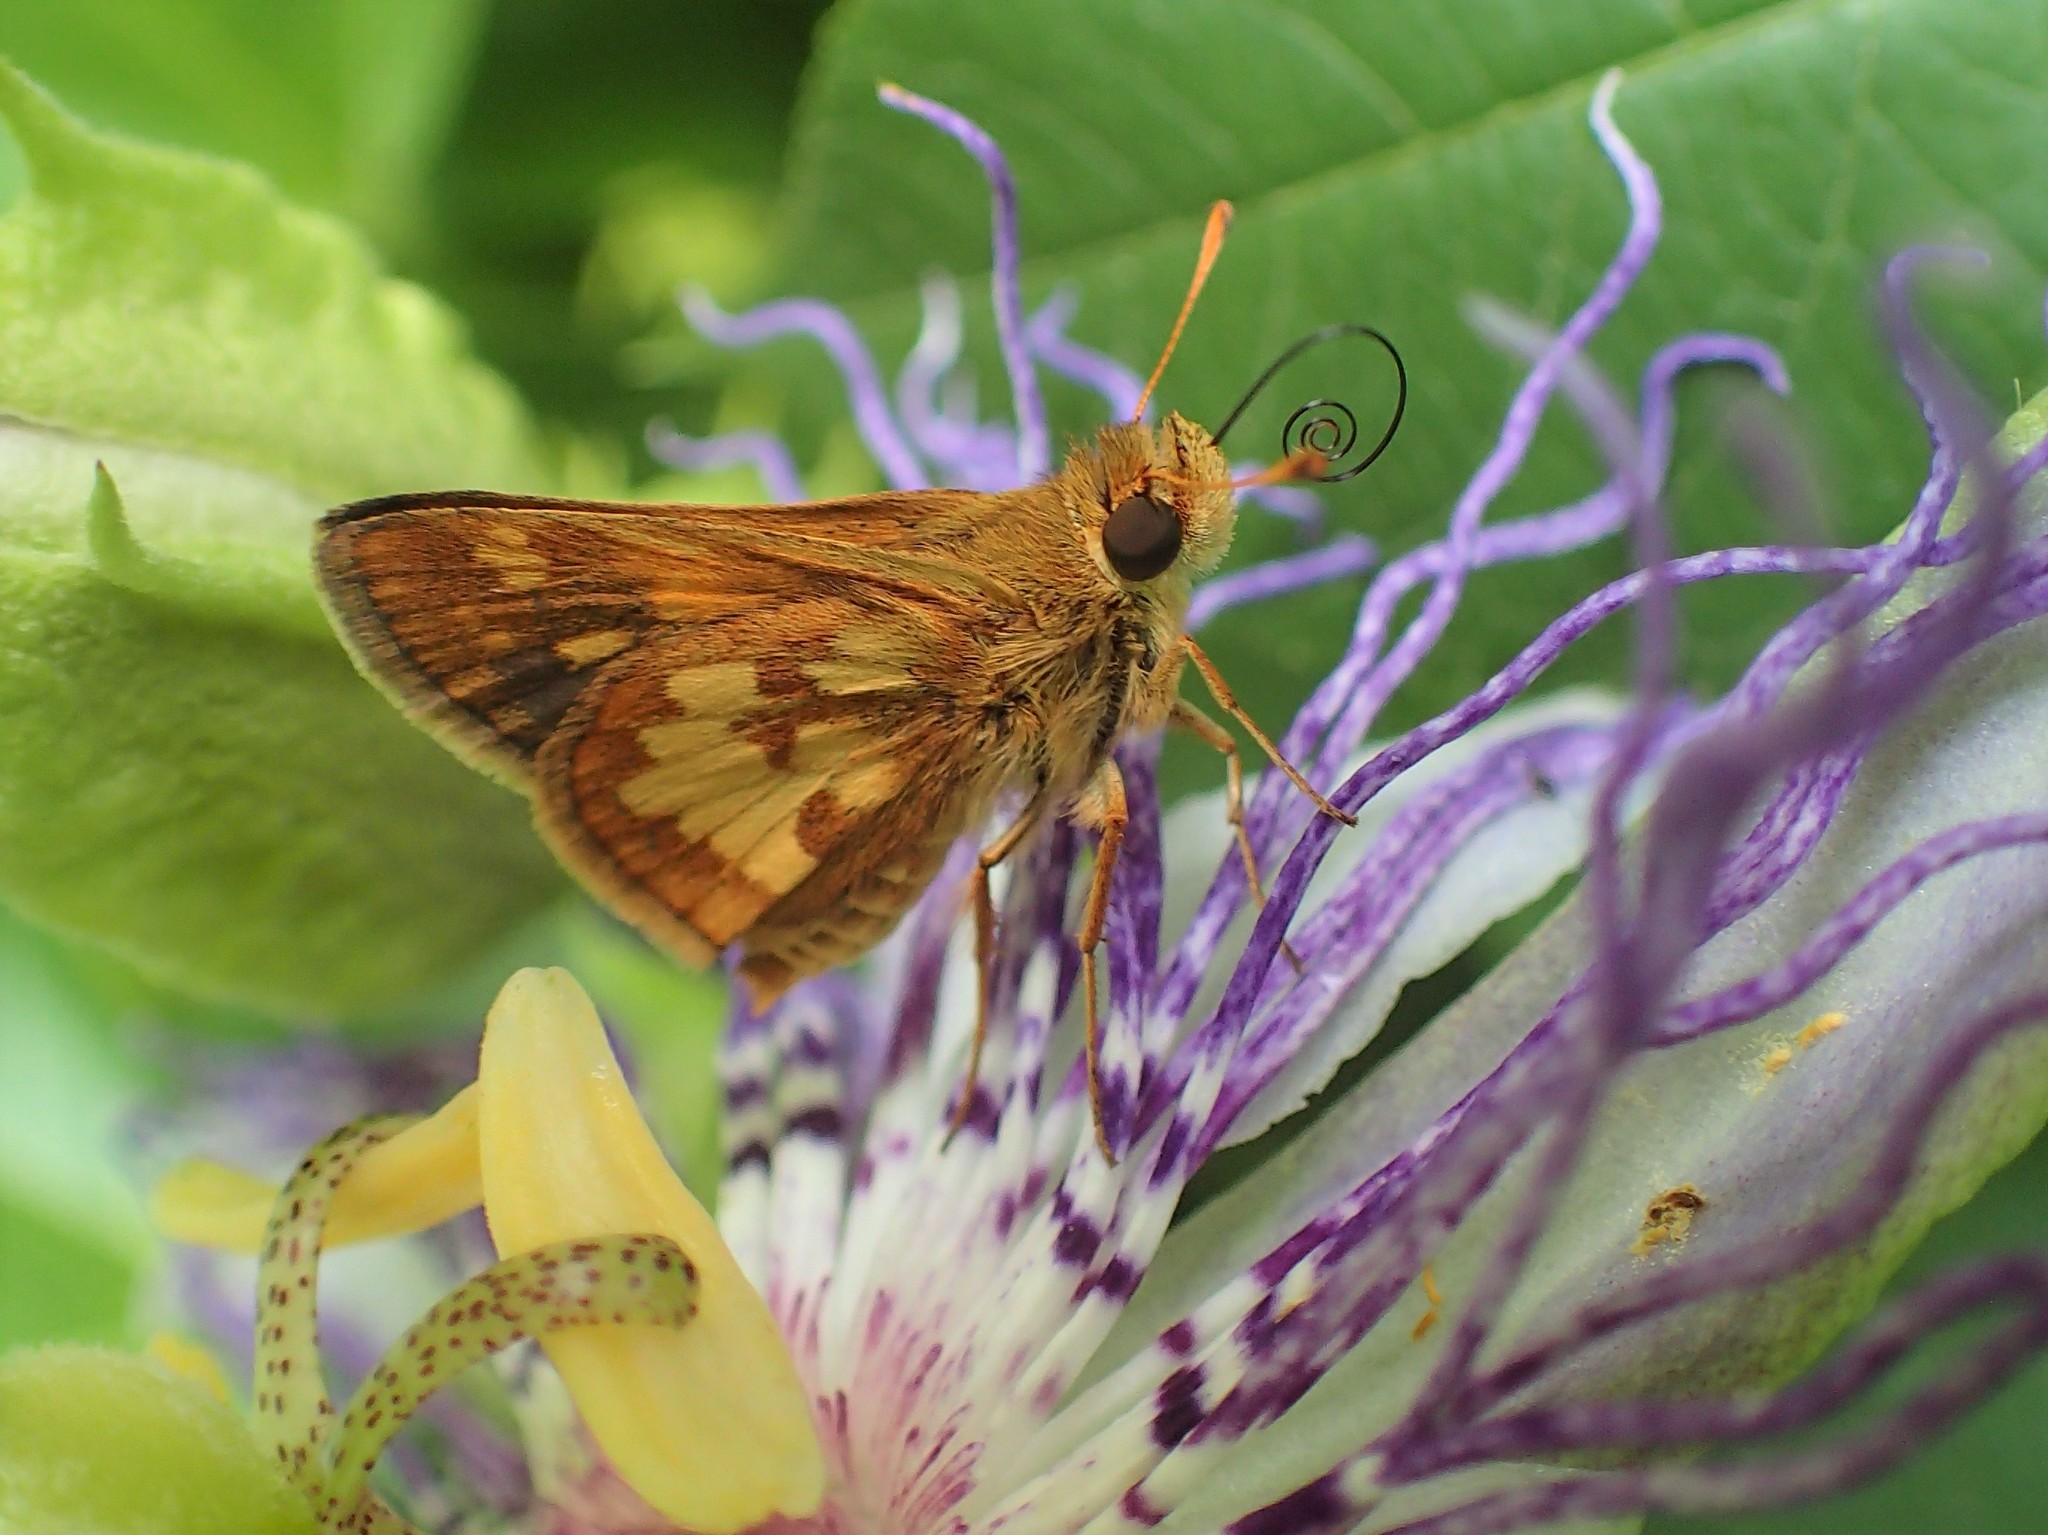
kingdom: Animalia
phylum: Arthropoda
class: Insecta
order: Lepidoptera
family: Hesperiidae
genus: Polites
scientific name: Polites coras
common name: Peck's skipper
